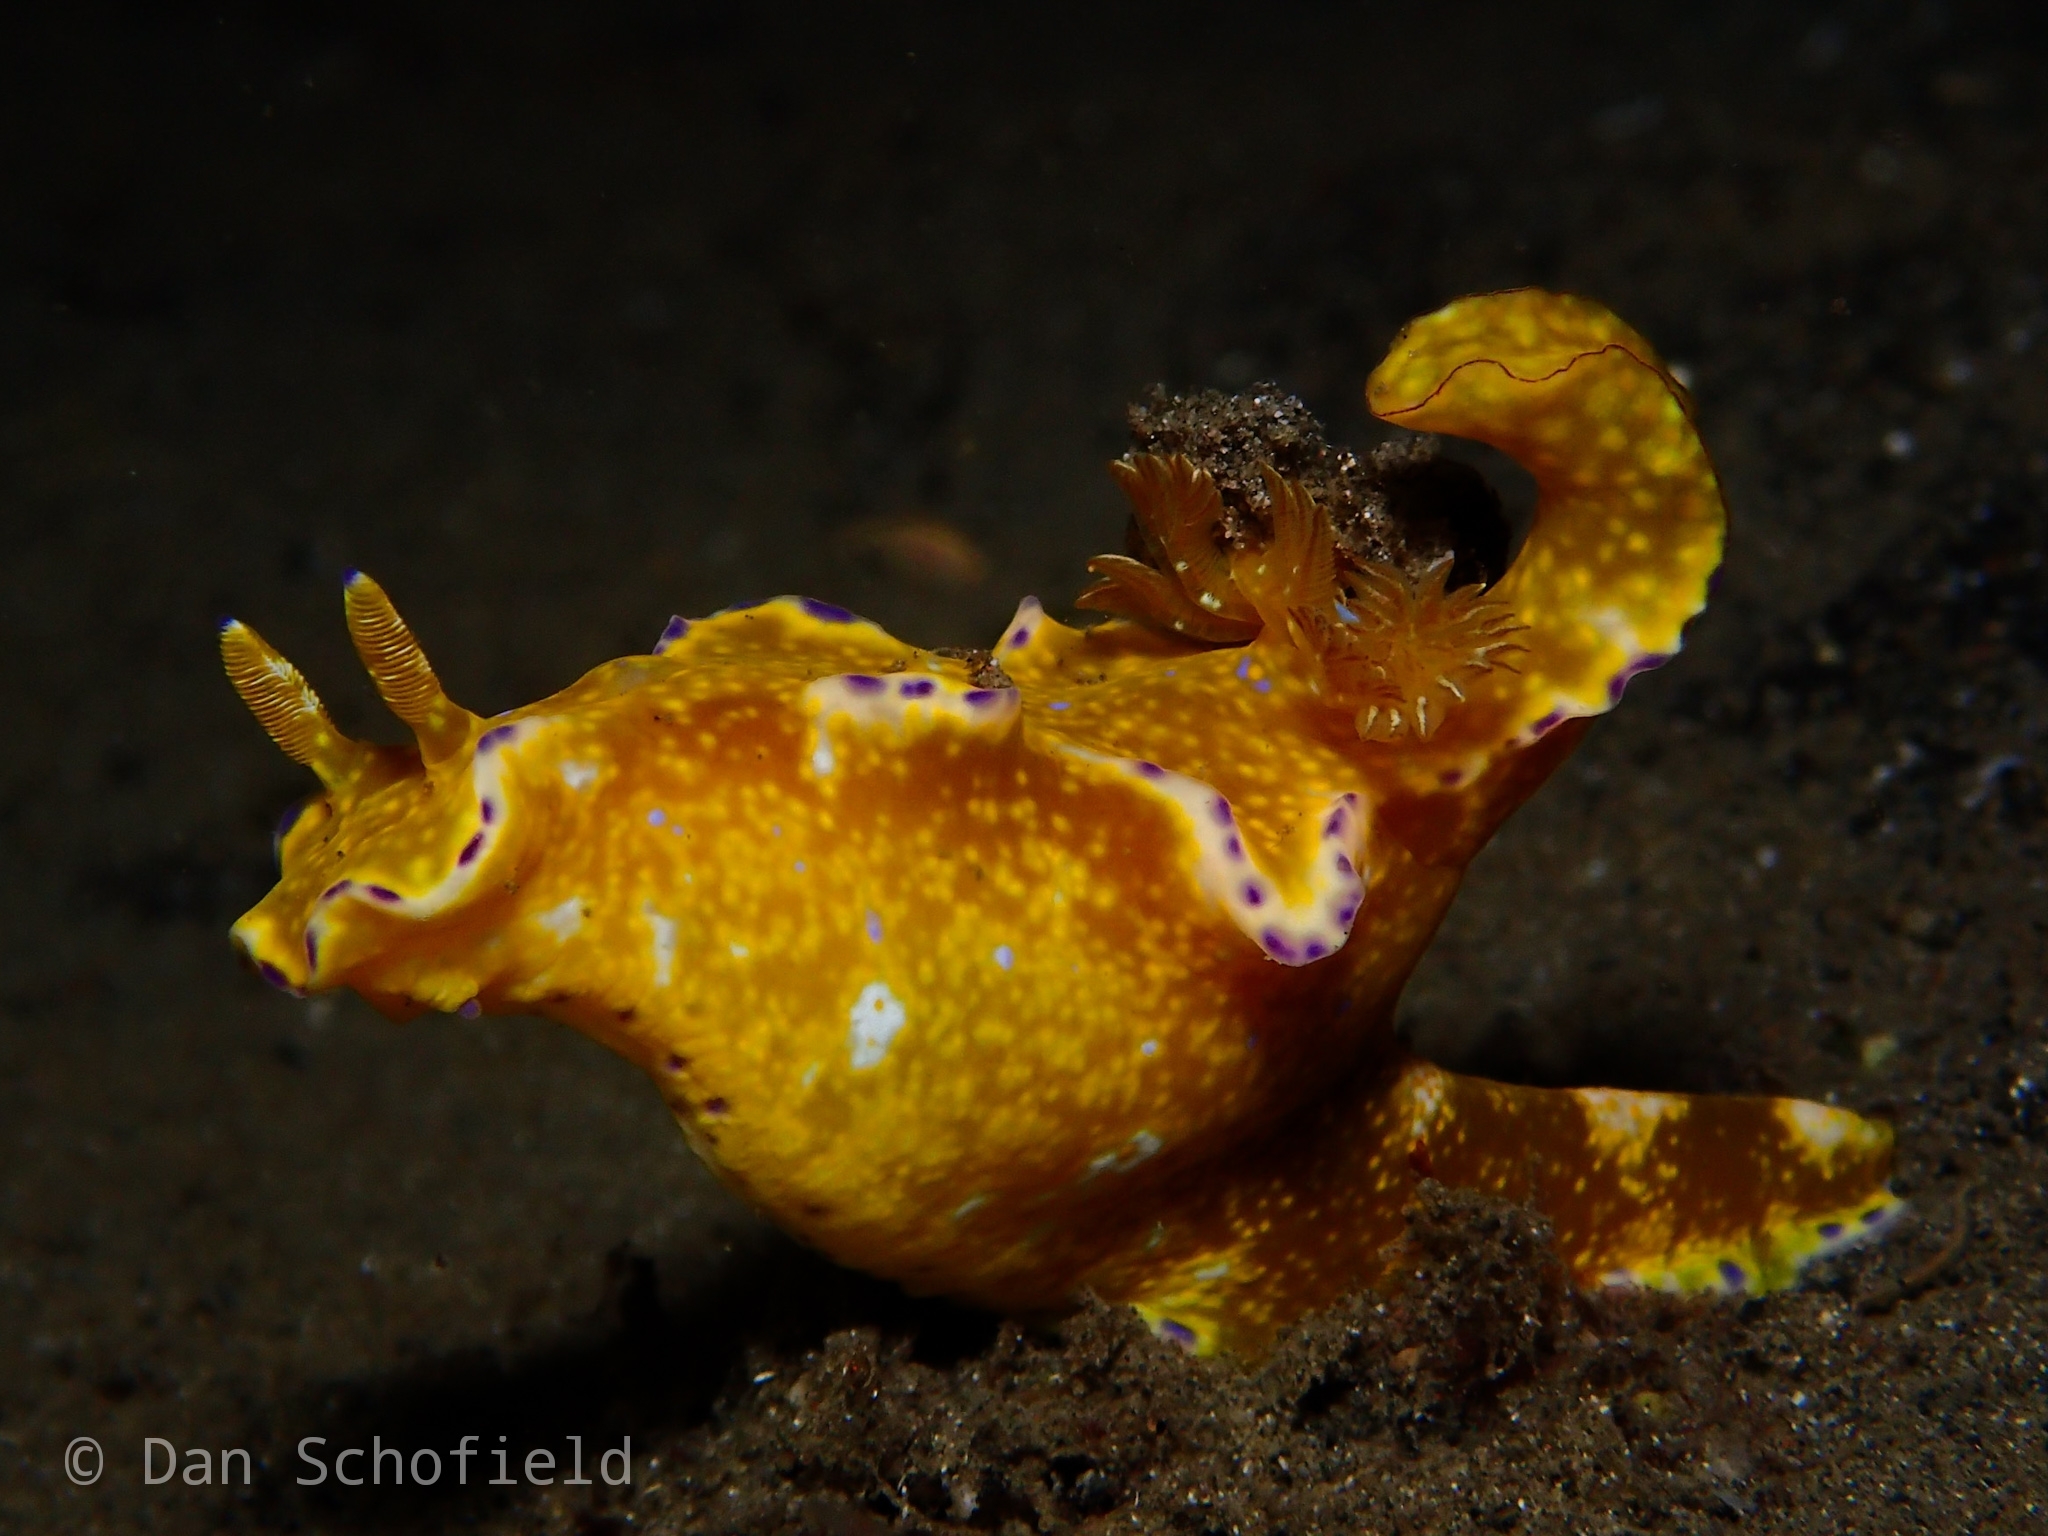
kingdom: Animalia
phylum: Mollusca
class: Gastropoda
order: Nudibranchia
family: Chromodorididae
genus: Ceratosoma
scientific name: Ceratosoma tenue
